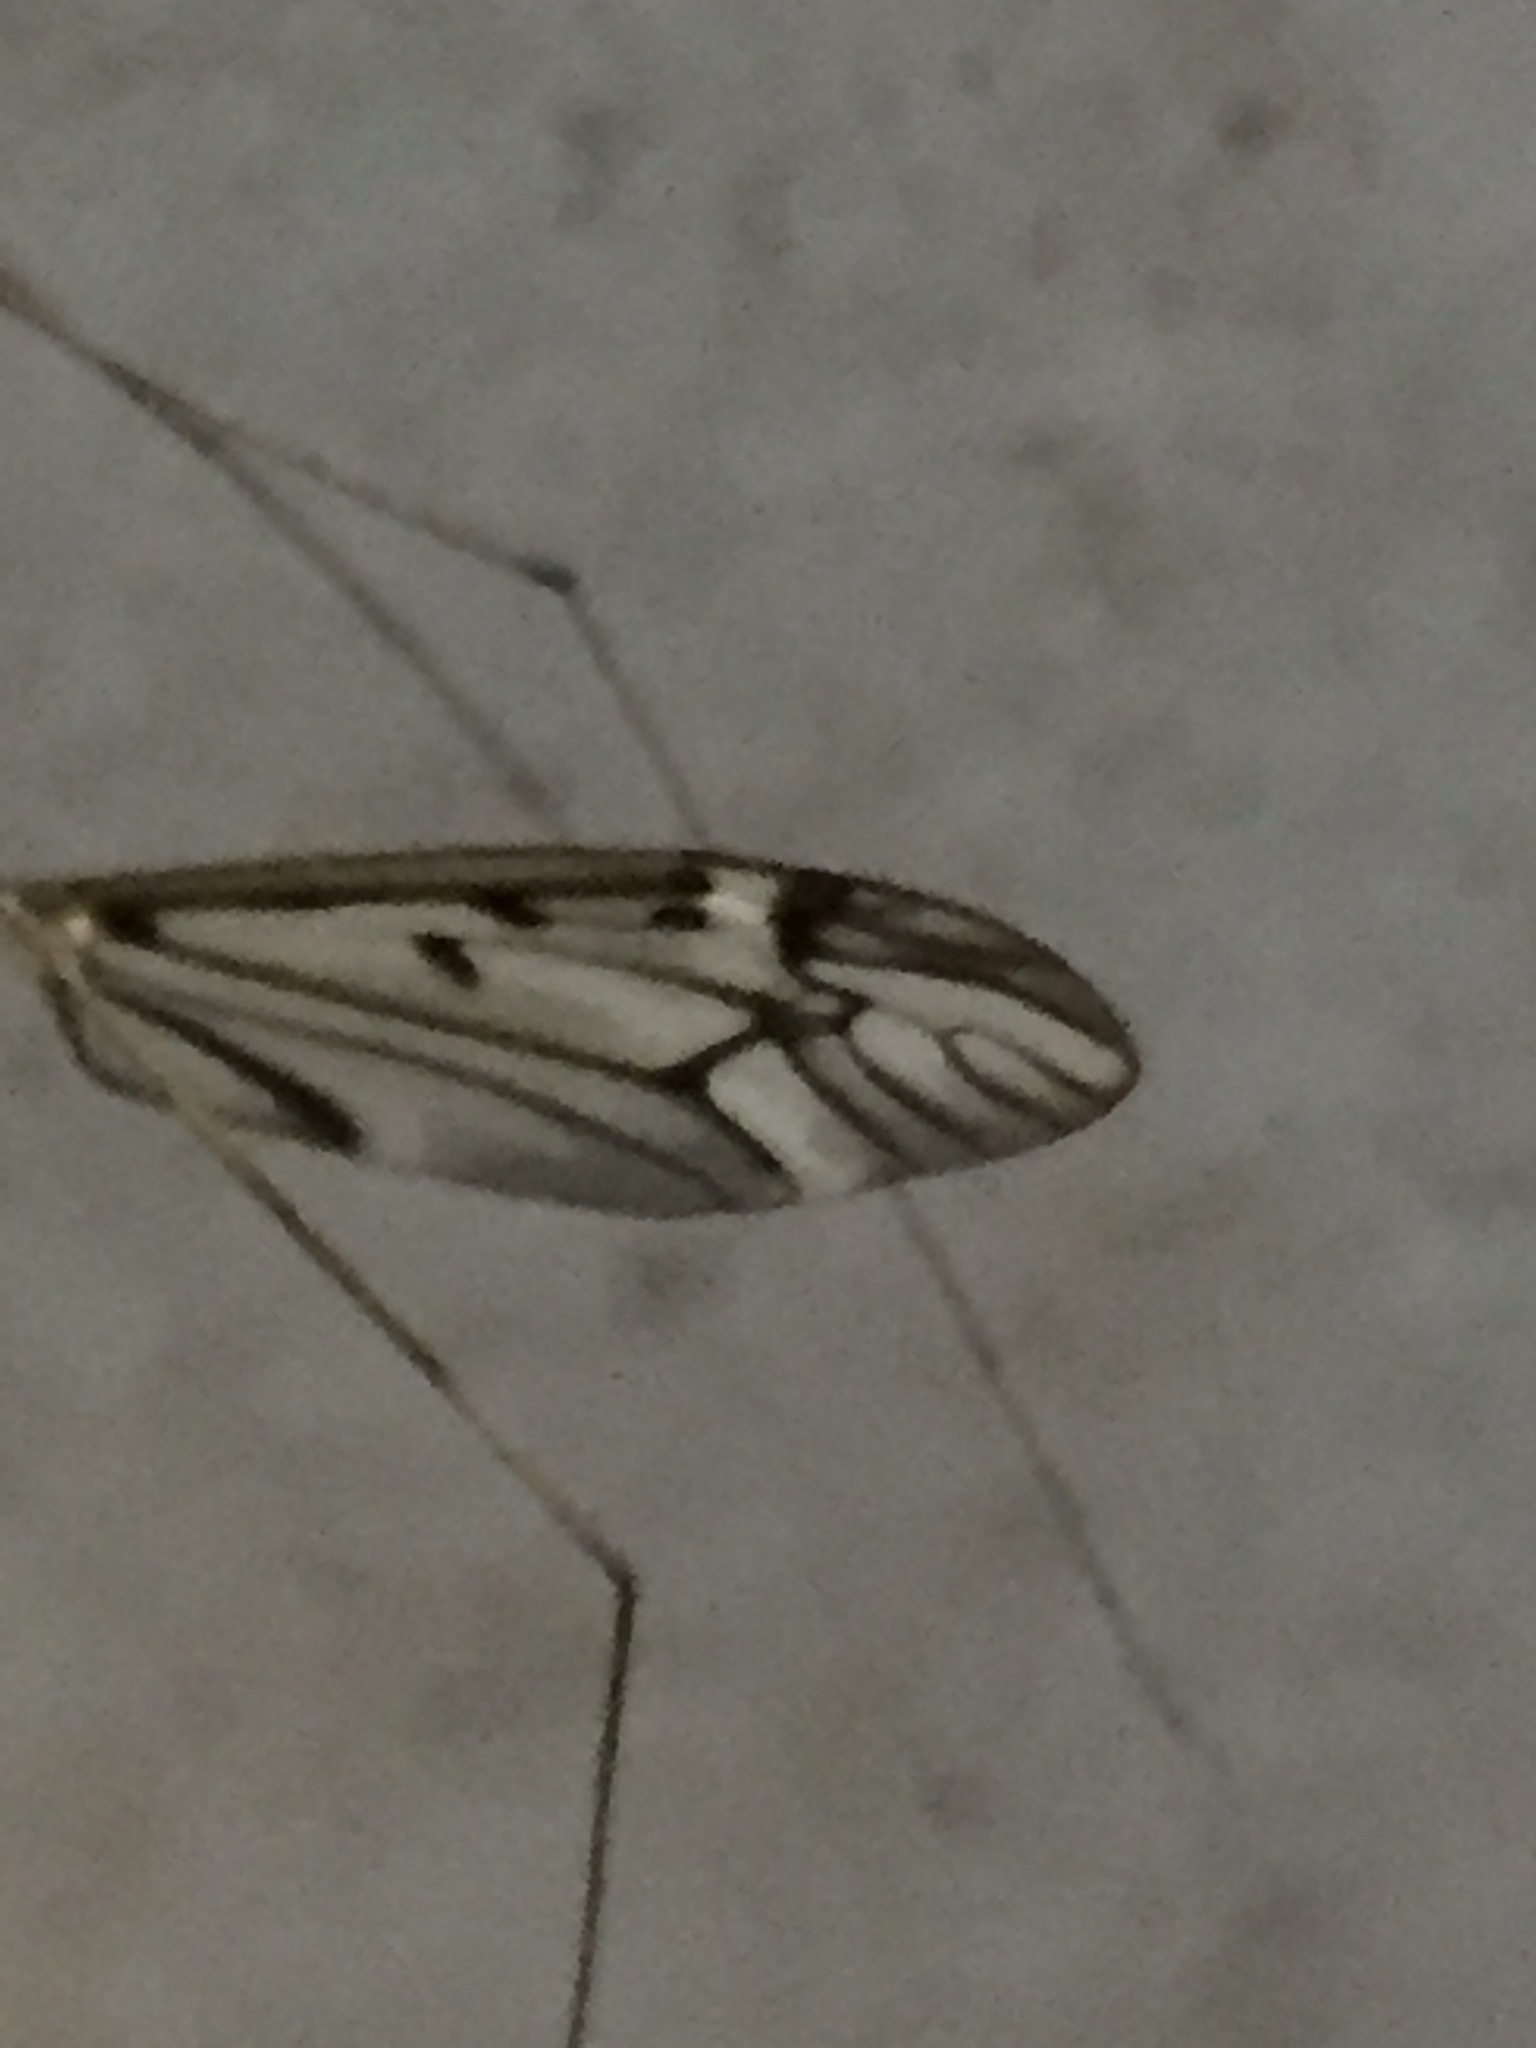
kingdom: Animalia
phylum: Arthropoda
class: Insecta
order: Diptera
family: Tipulidae
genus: Zelandotipula
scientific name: Zelandotipula novarae
